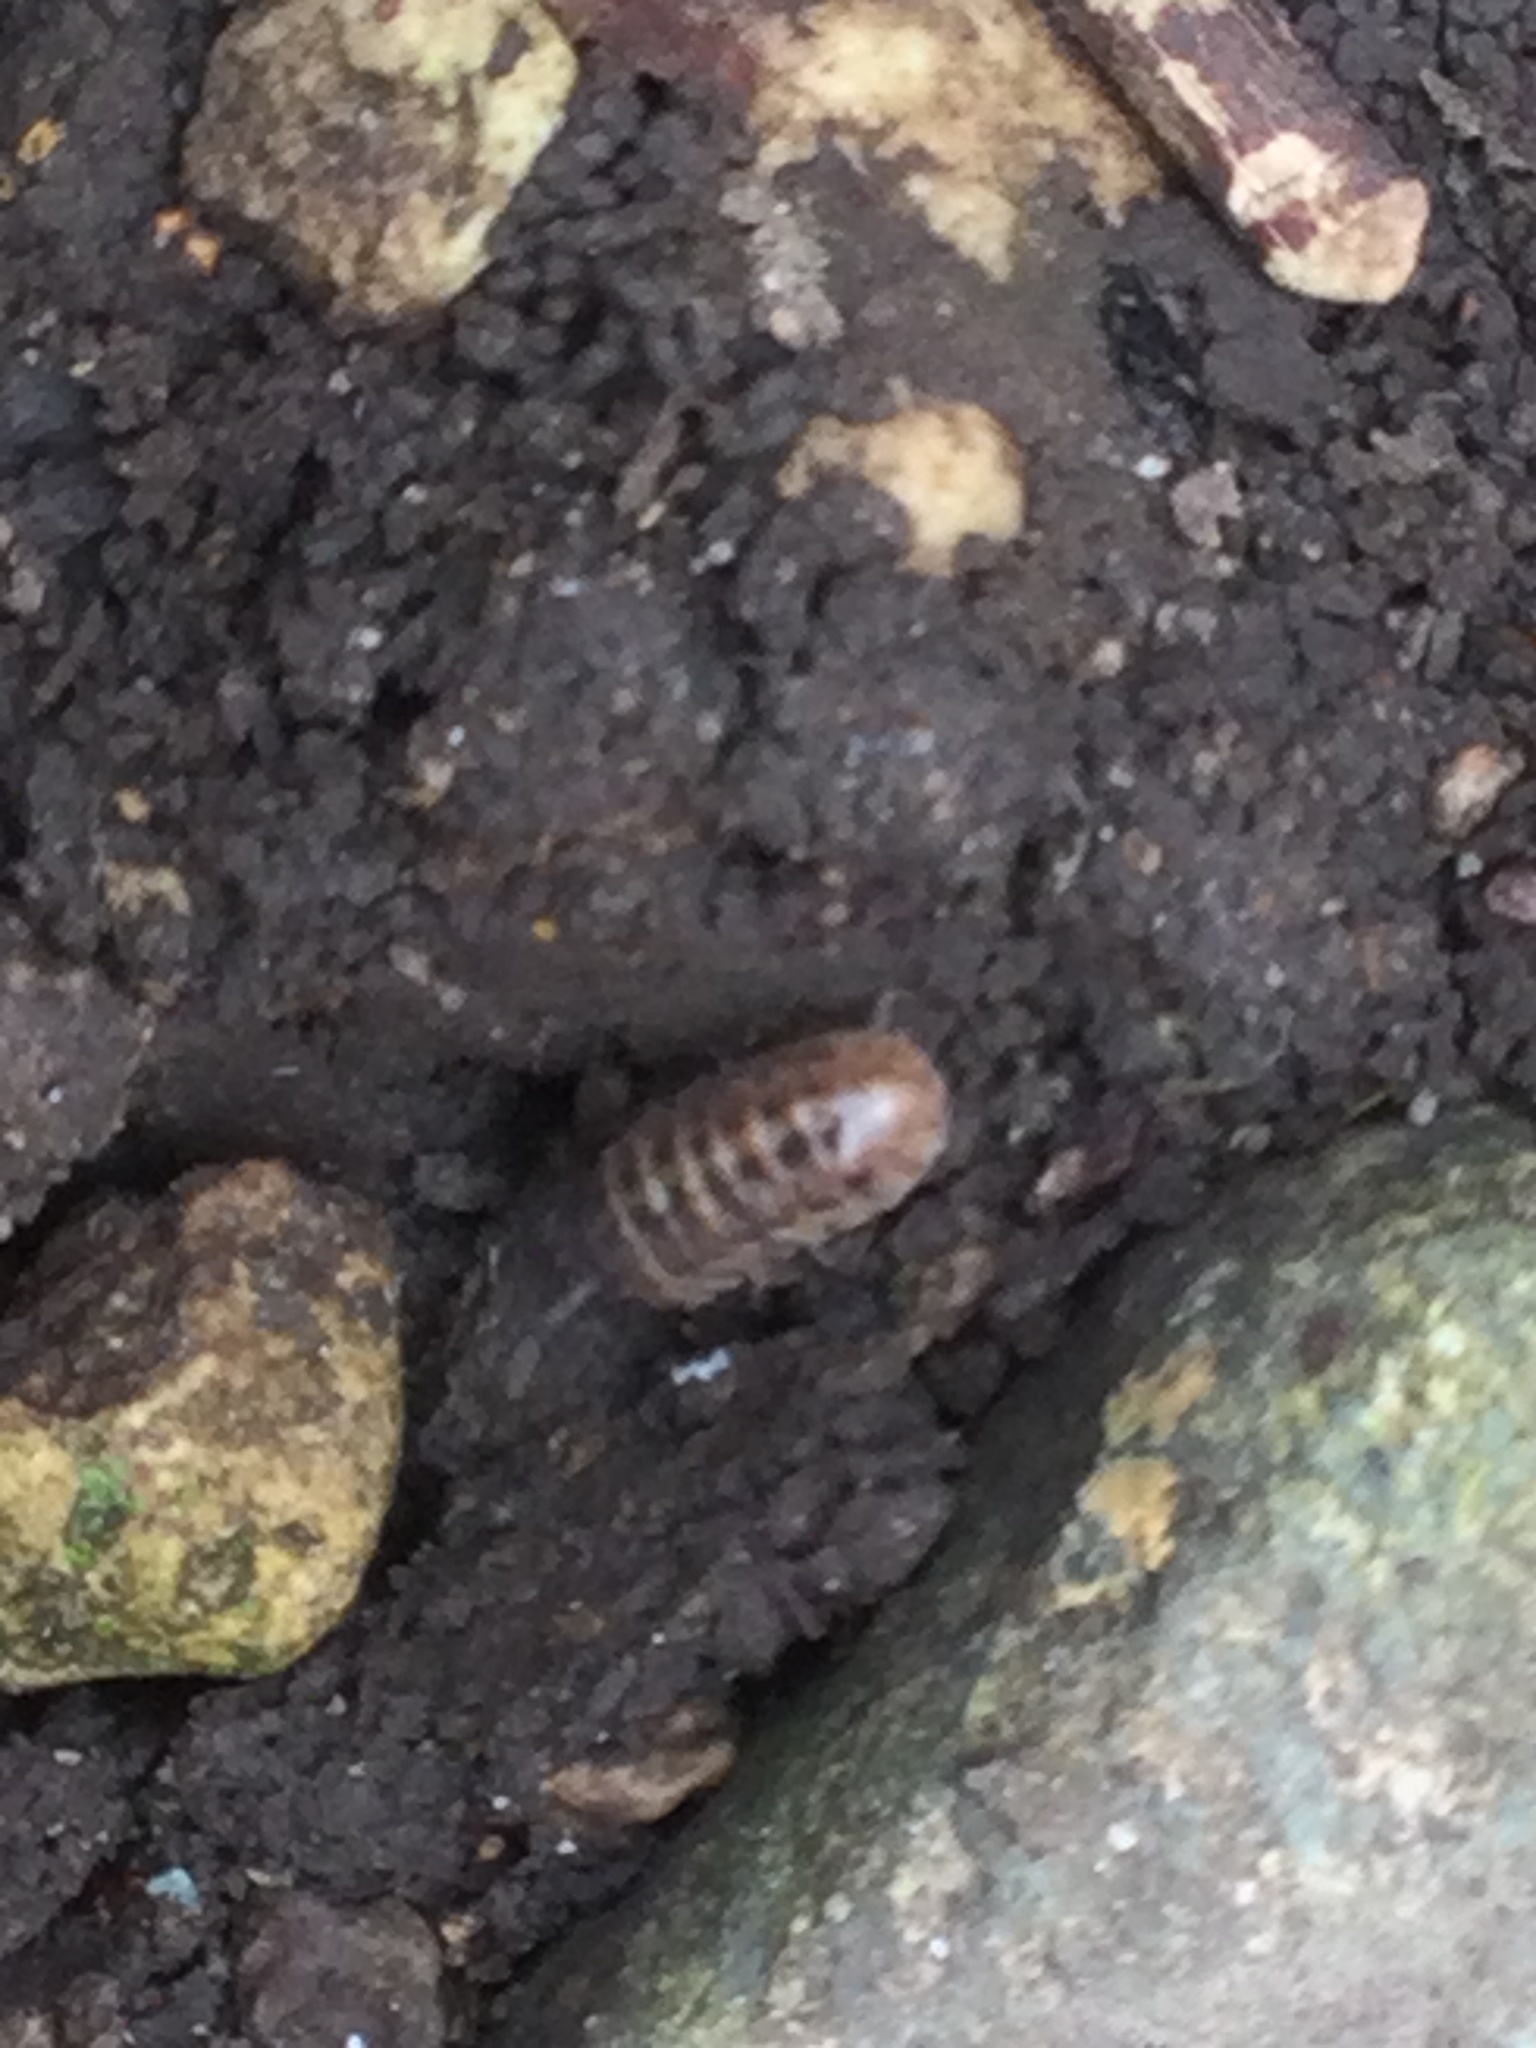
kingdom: Animalia
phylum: Arthropoda
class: Malacostraca
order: Isopoda
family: Armadillidiidae
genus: Armadillidium
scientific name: Armadillidium vulgare
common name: Common pill woodlouse
